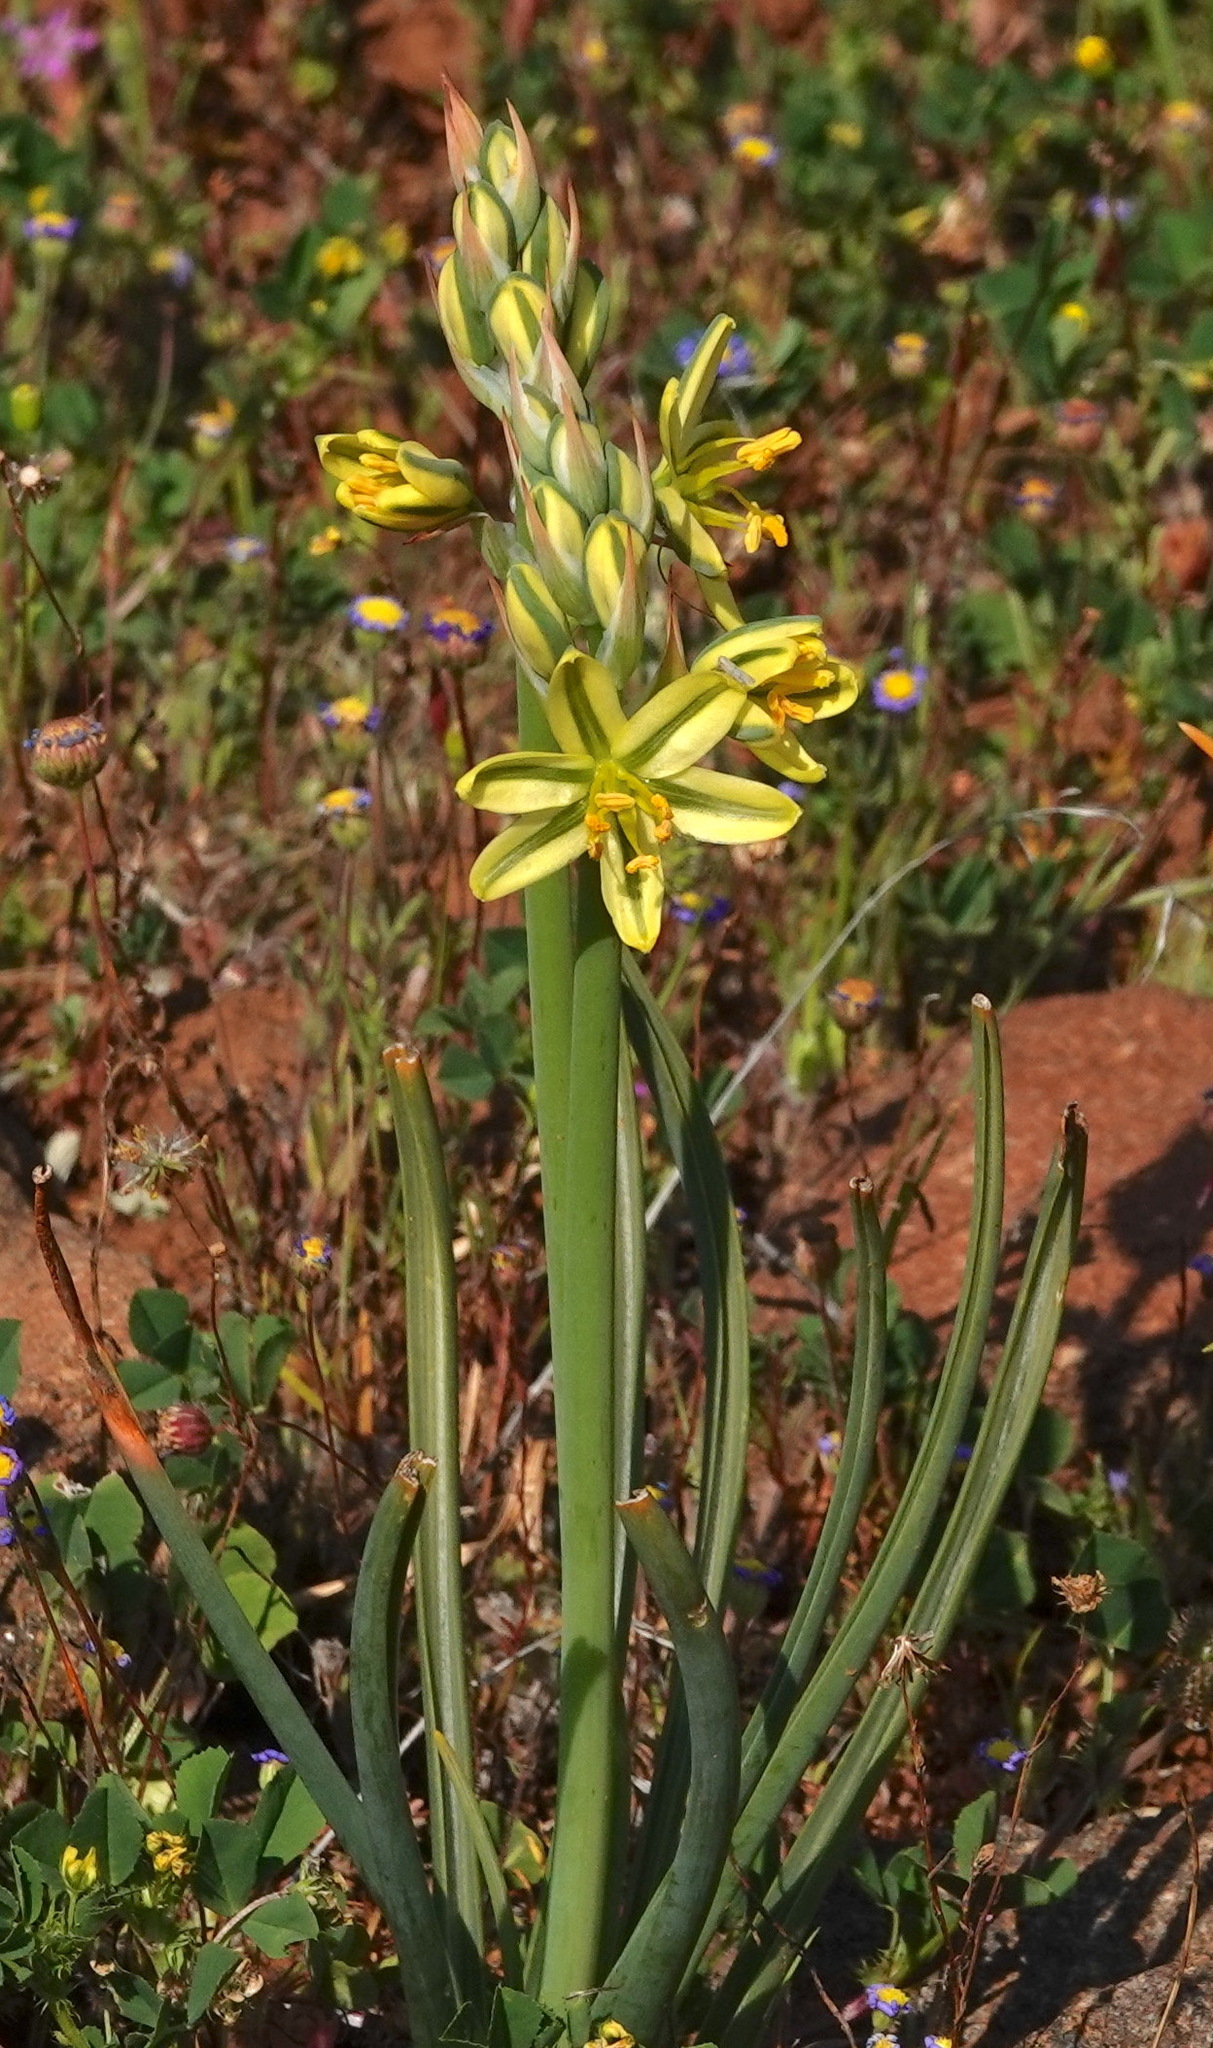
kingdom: Plantae
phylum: Tracheophyta
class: Liliopsida
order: Asparagales
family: Asparagaceae
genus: Albuca
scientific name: Albuca suaveolens
